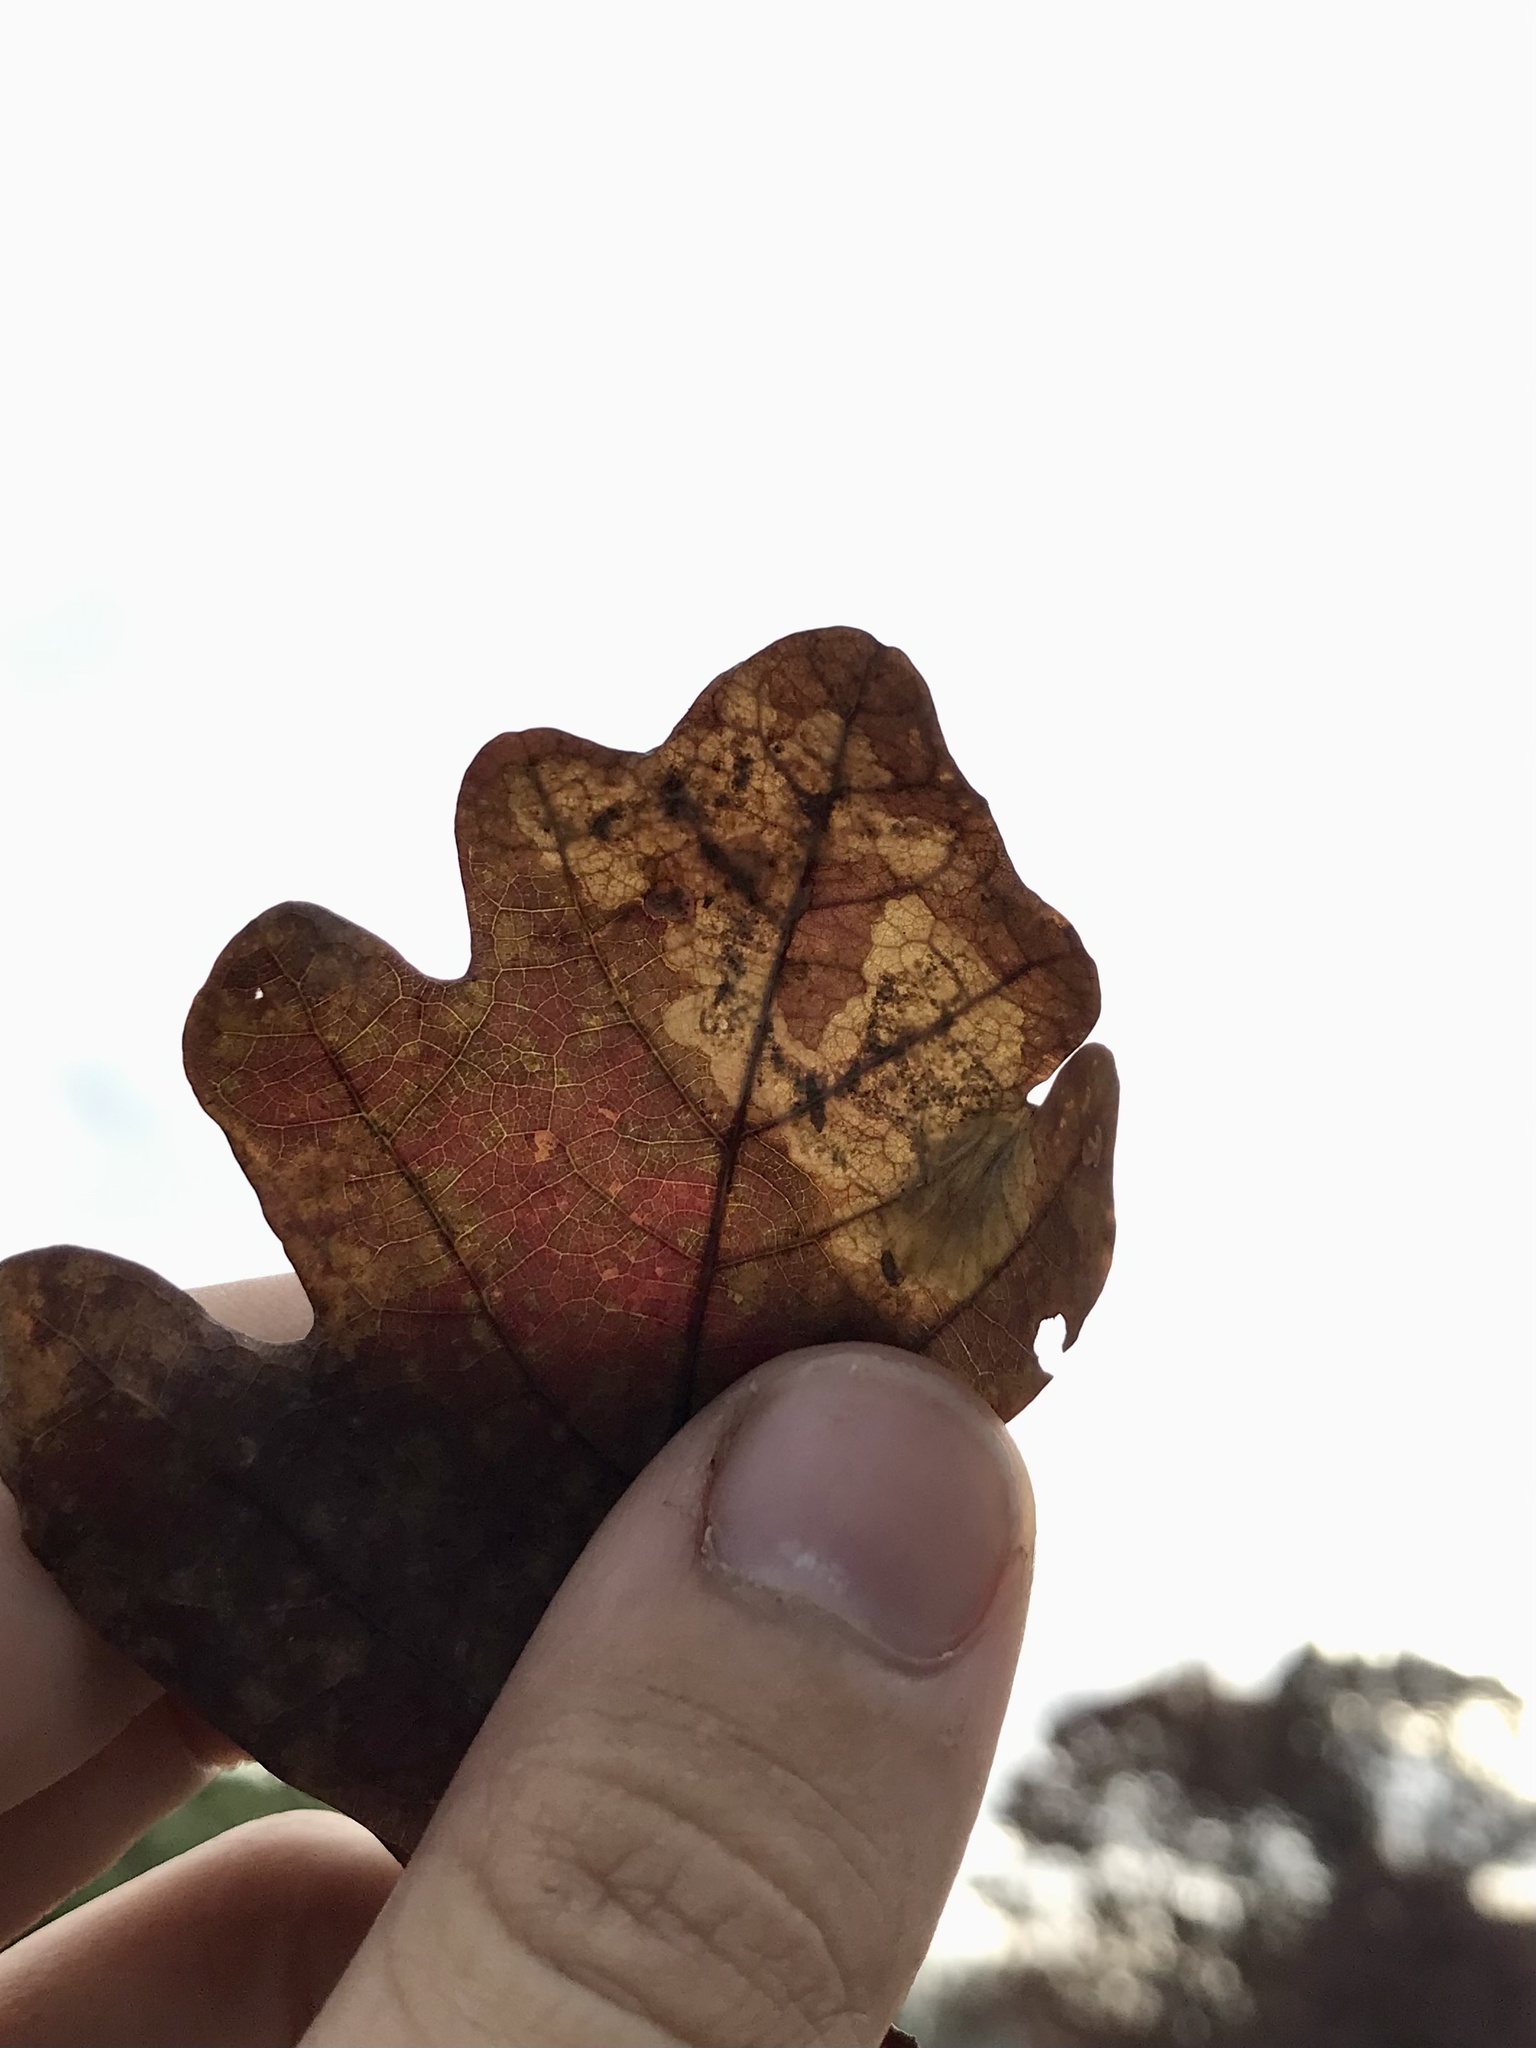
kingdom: Animalia
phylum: Arthropoda
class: Insecta
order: Lepidoptera
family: Gracillariidae
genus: Cameraria
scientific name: Cameraria
